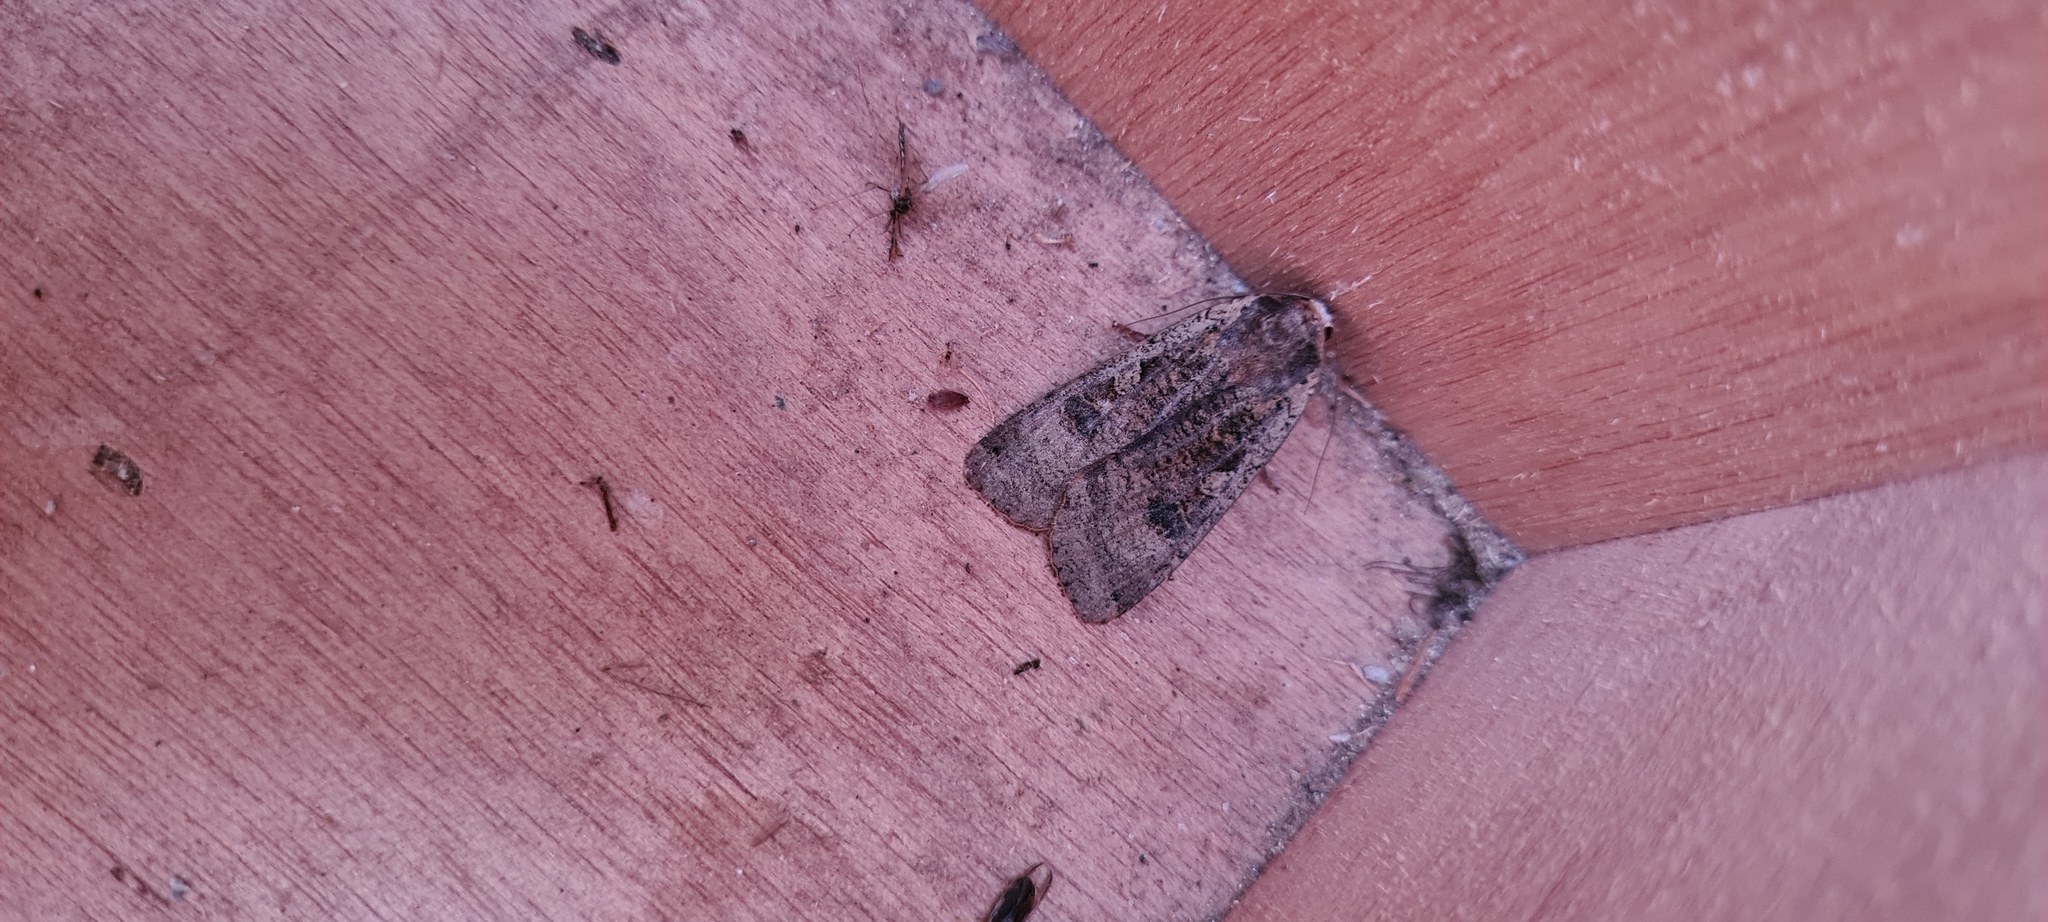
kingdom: Animalia
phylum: Arthropoda
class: Insecta
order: Lepidoptera
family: Noctuidae
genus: Noctua
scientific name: Noctua pronuba
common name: Large yellow underwing
